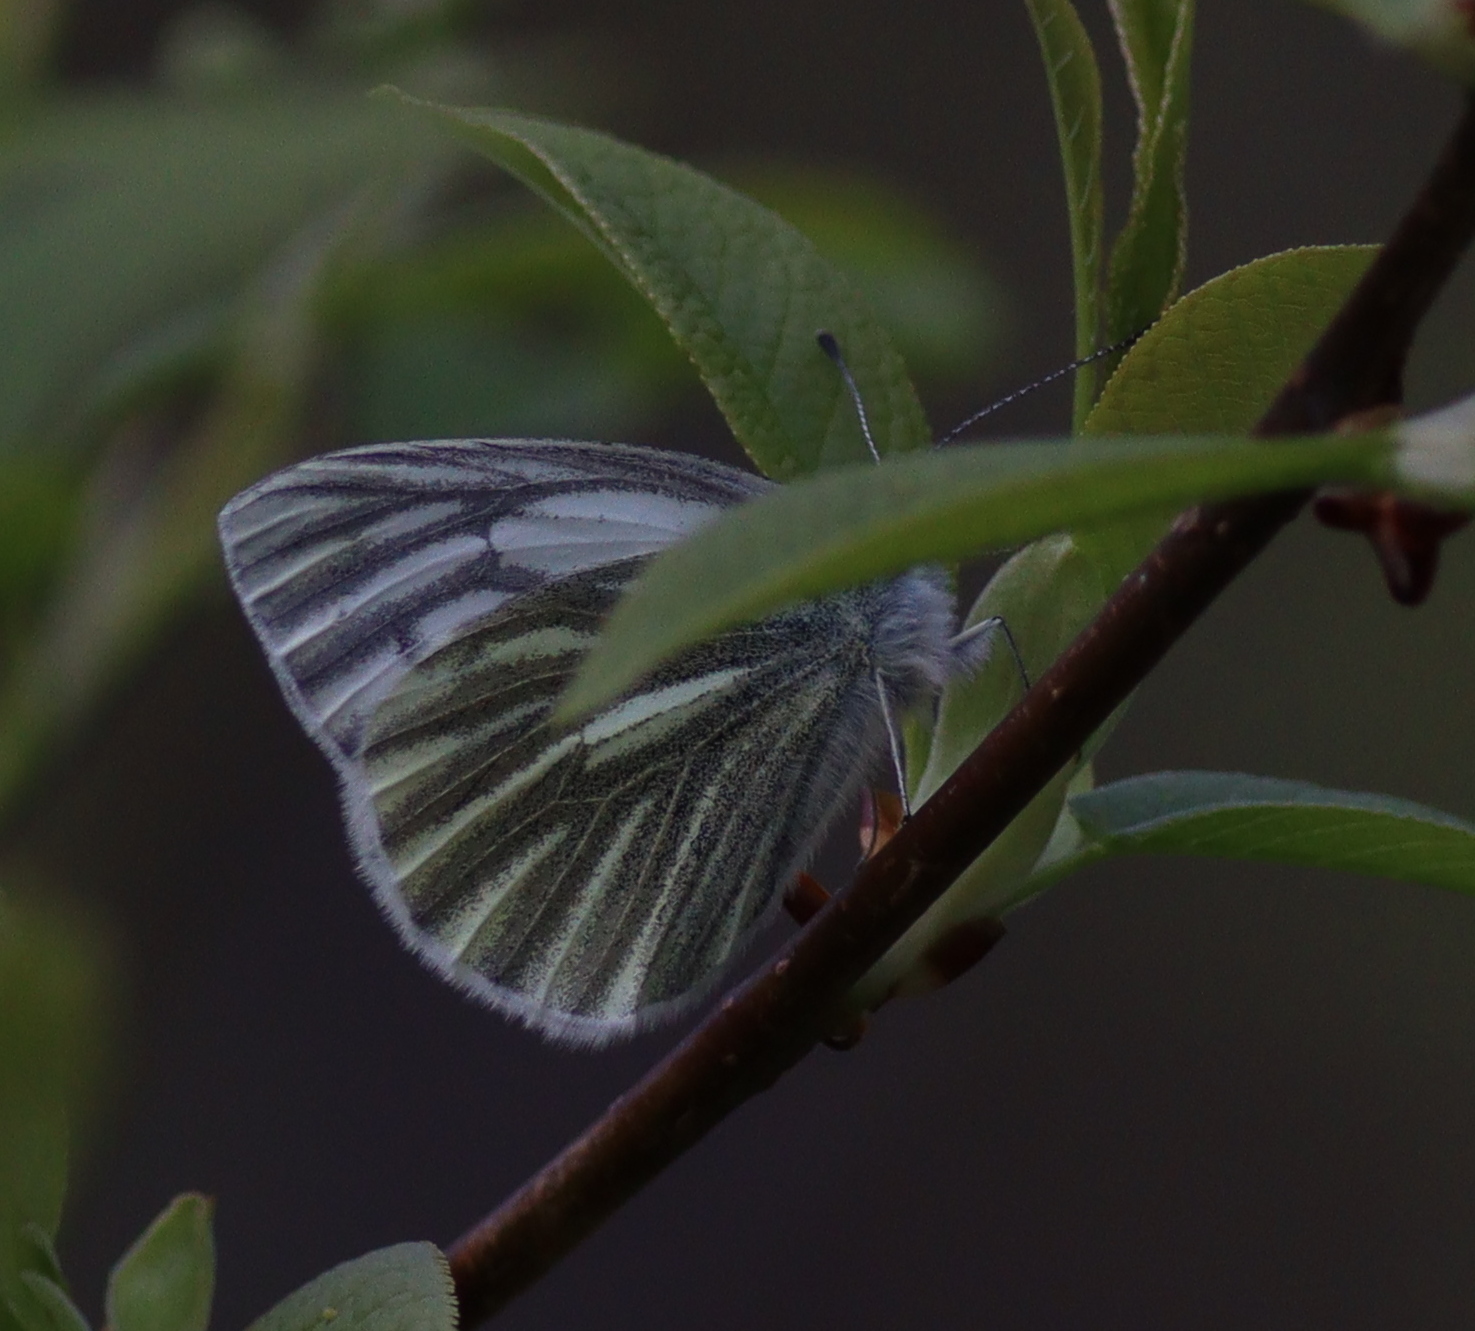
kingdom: Animalia
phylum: Arthropoda
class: Insecta
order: Lepidoptera
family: Pieridae
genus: Pieris
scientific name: Pieris napi
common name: Green-veined white
